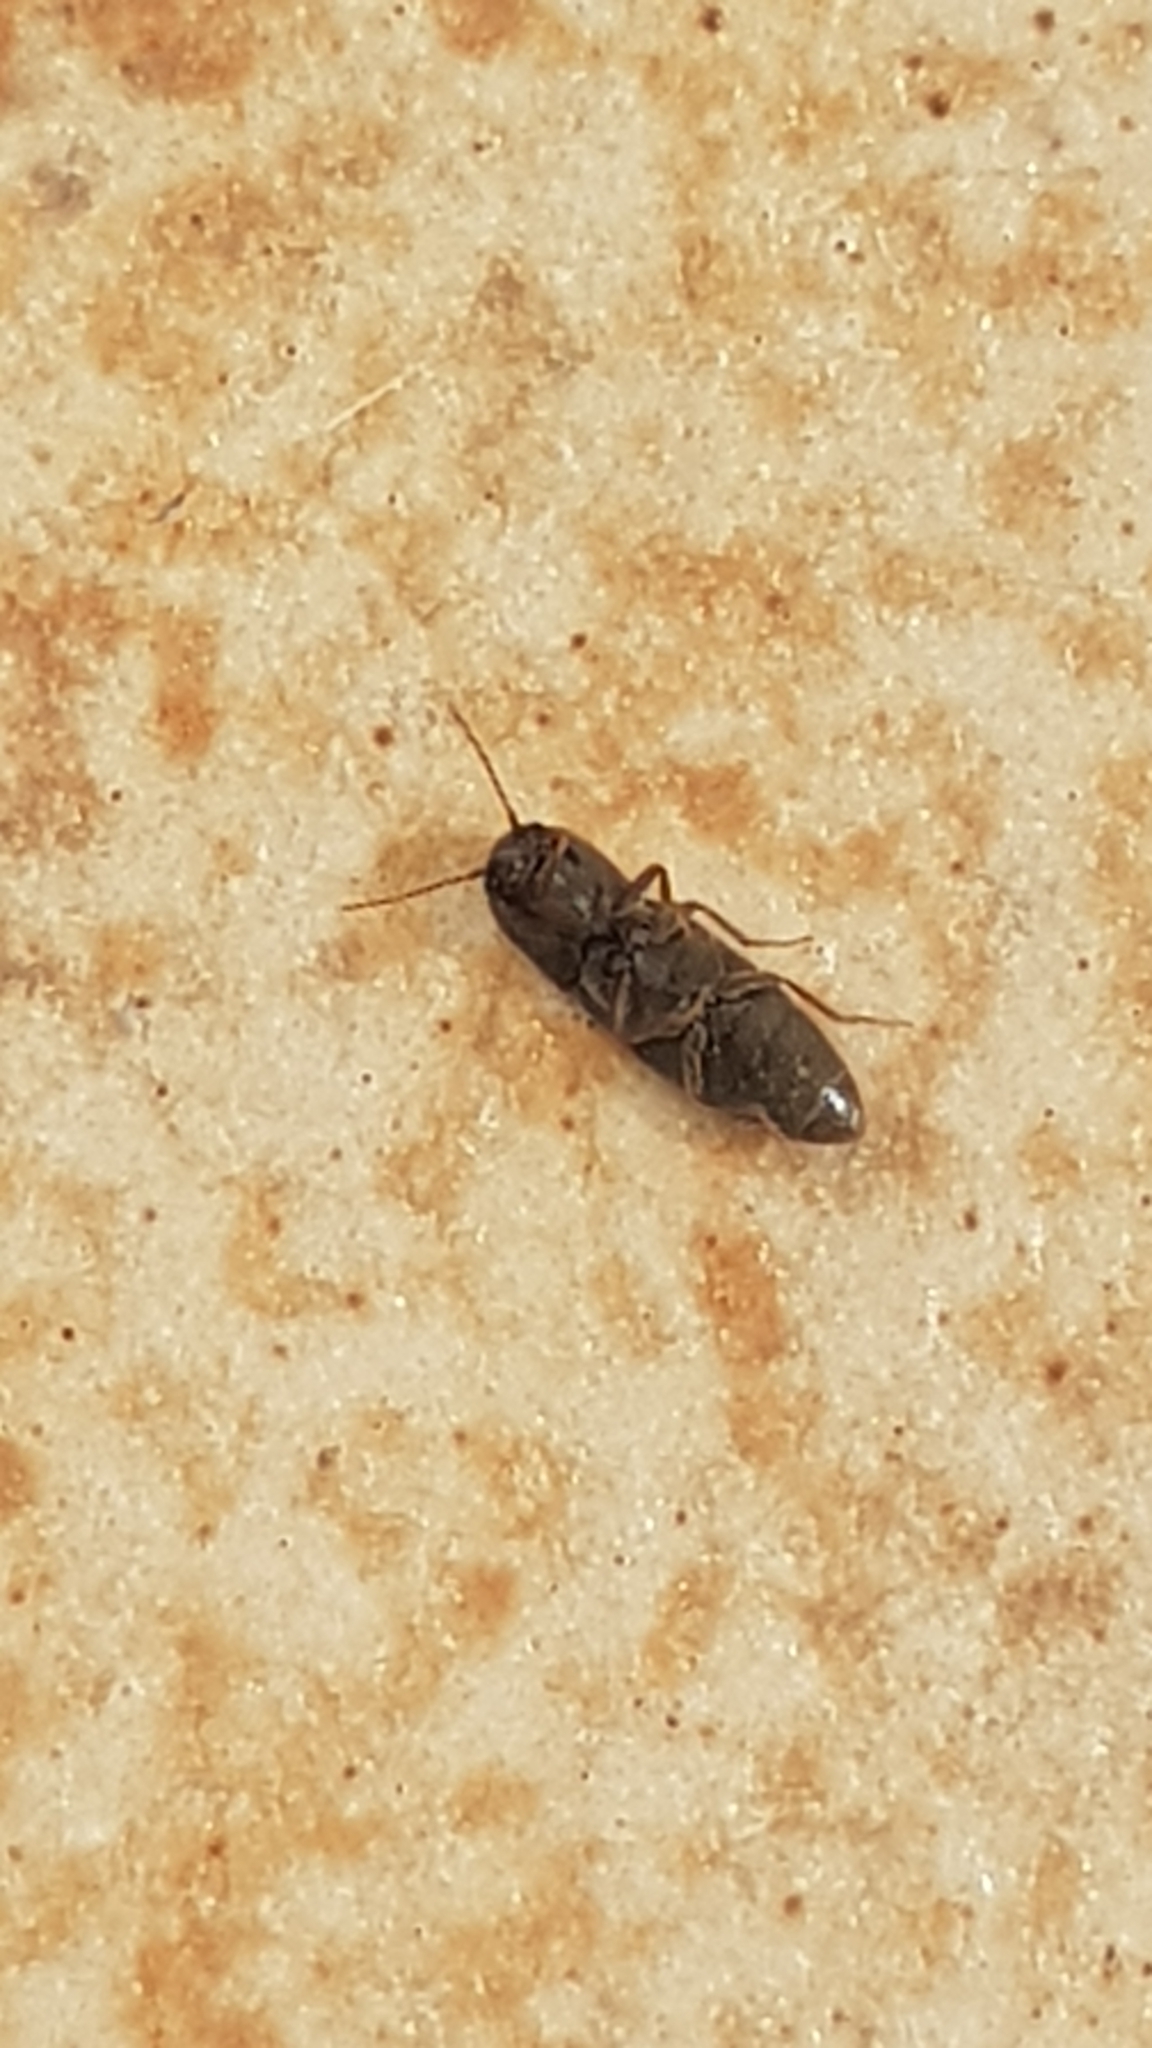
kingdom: Animalia
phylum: Arthropoda
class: Insecta
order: Coleoptera
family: Elateridae
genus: Agriotes
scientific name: Agriotes lineatus
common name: Lined click beetle
